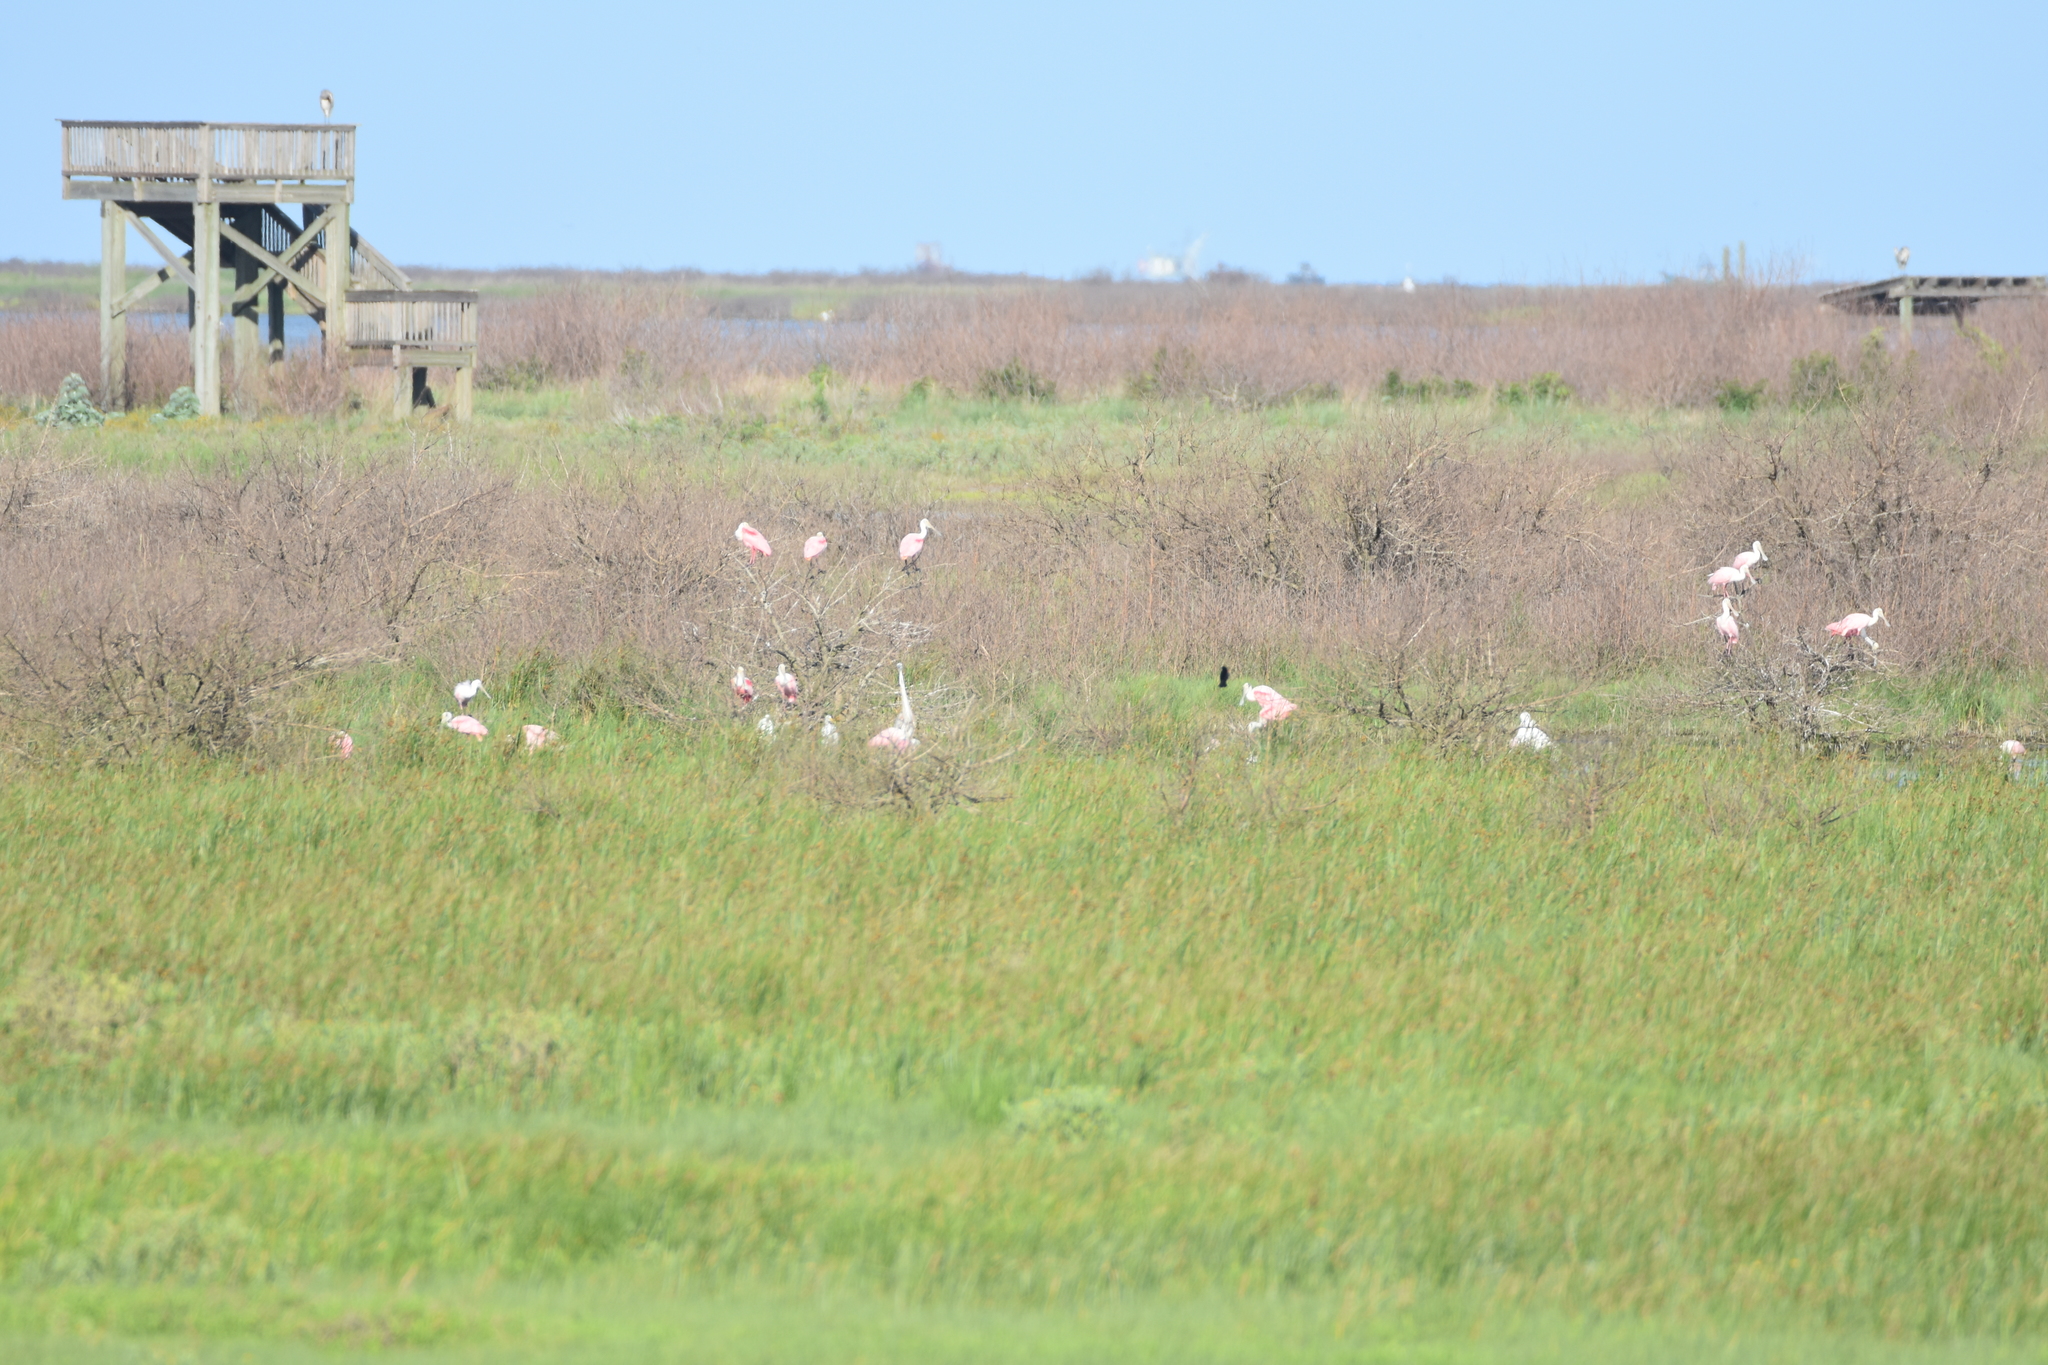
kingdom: Animalia
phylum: Chordata
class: Aves
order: Pelecaniformes
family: Threskiornithidae
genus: Platalea
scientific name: Platalea ajaja
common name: Roseate spoonbill
